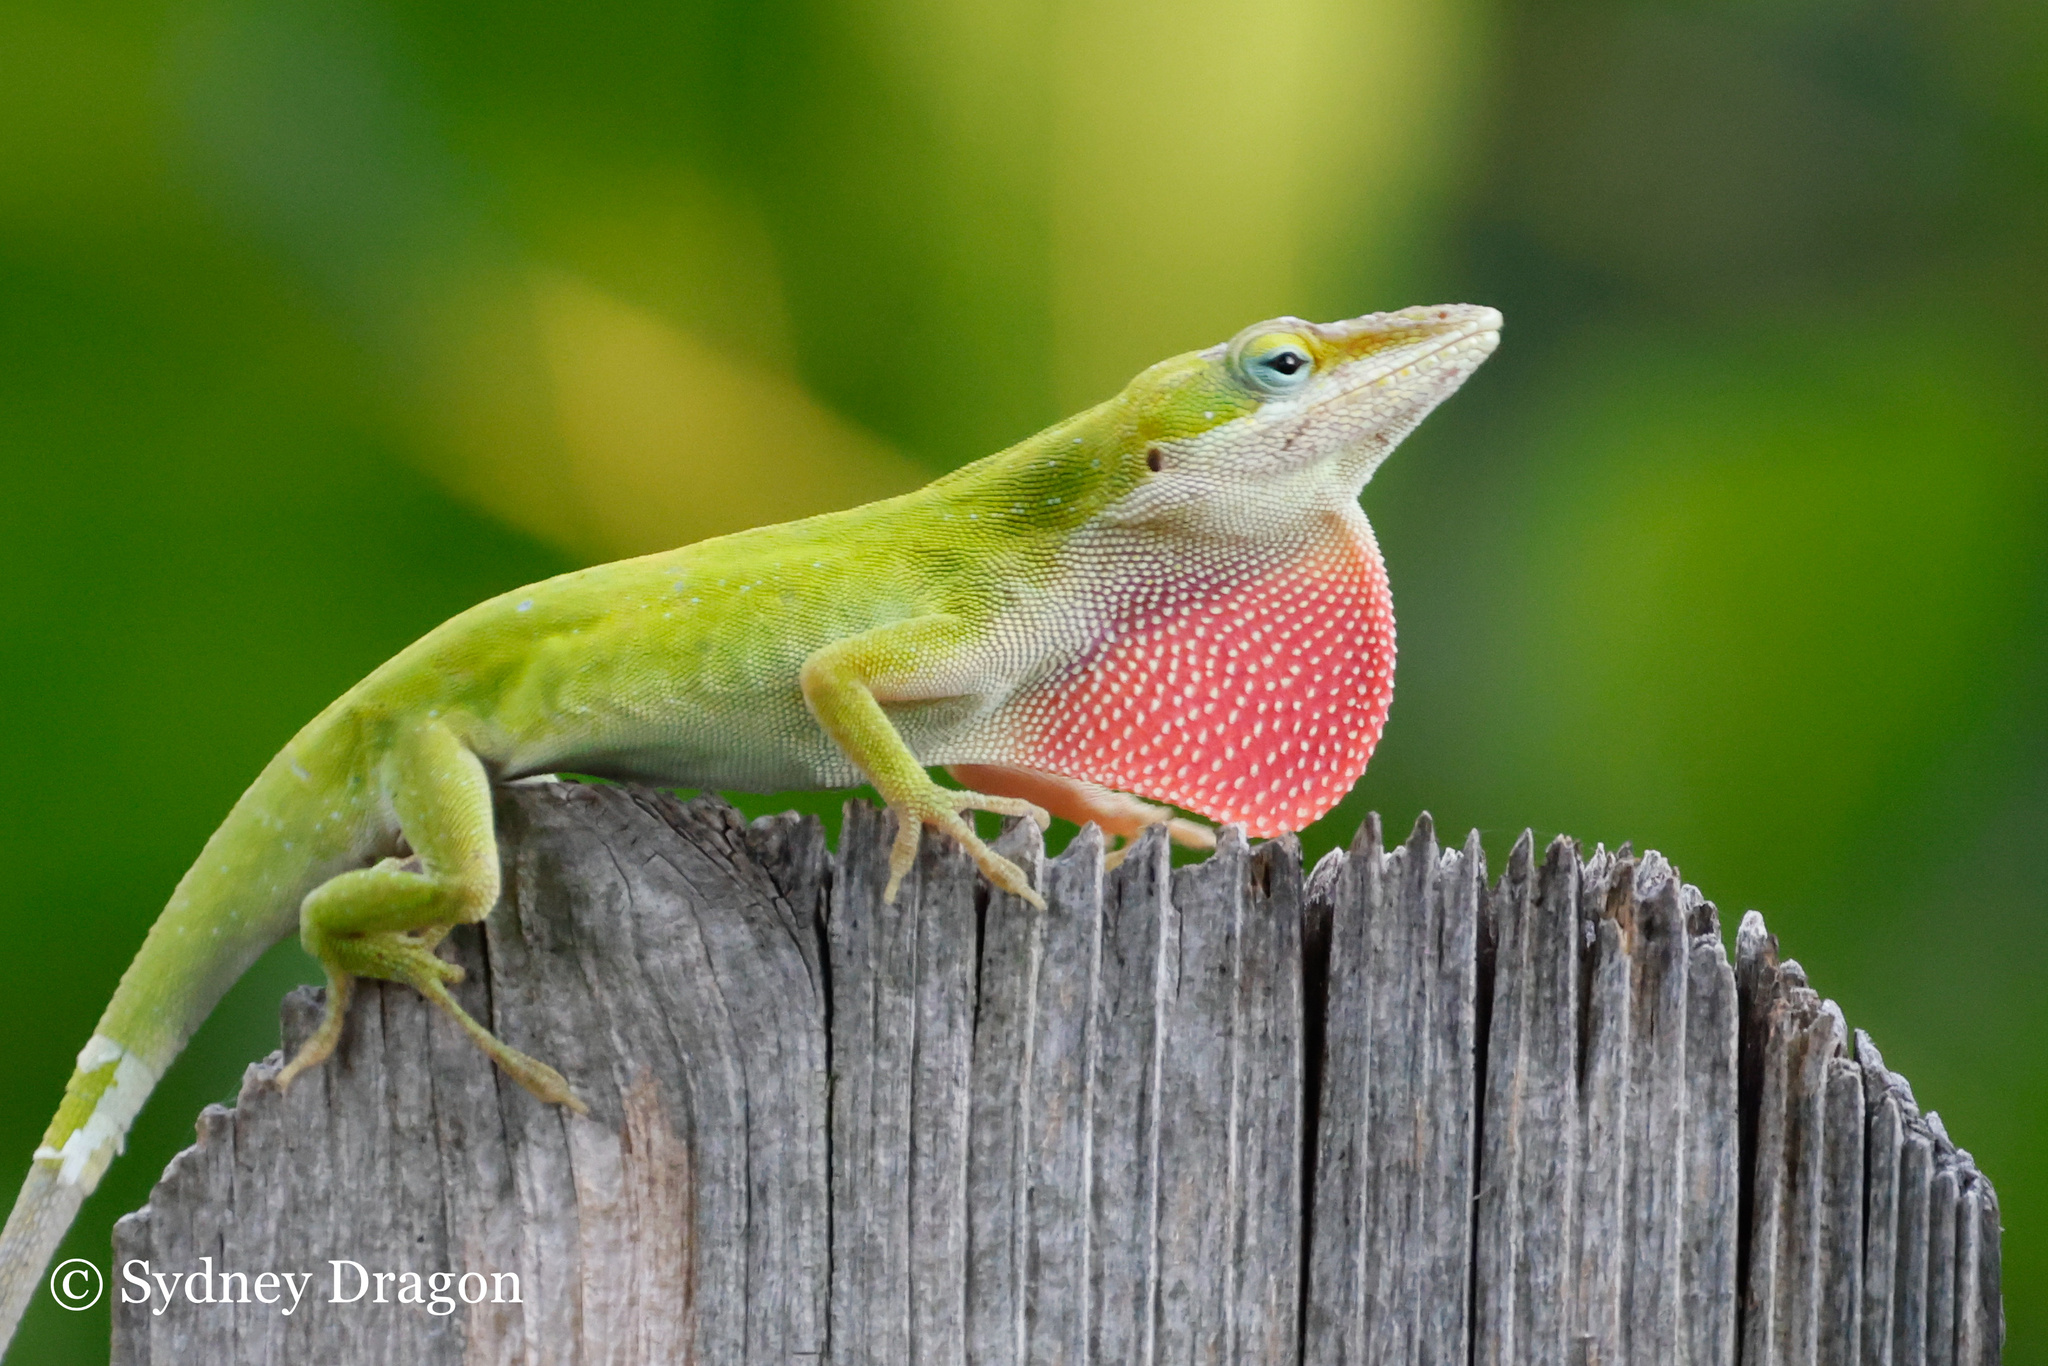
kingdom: Animalia
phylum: Chordata
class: Squamata
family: Dactyloidae
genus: Anolis
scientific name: Anolis carolinensis
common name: Green anole
